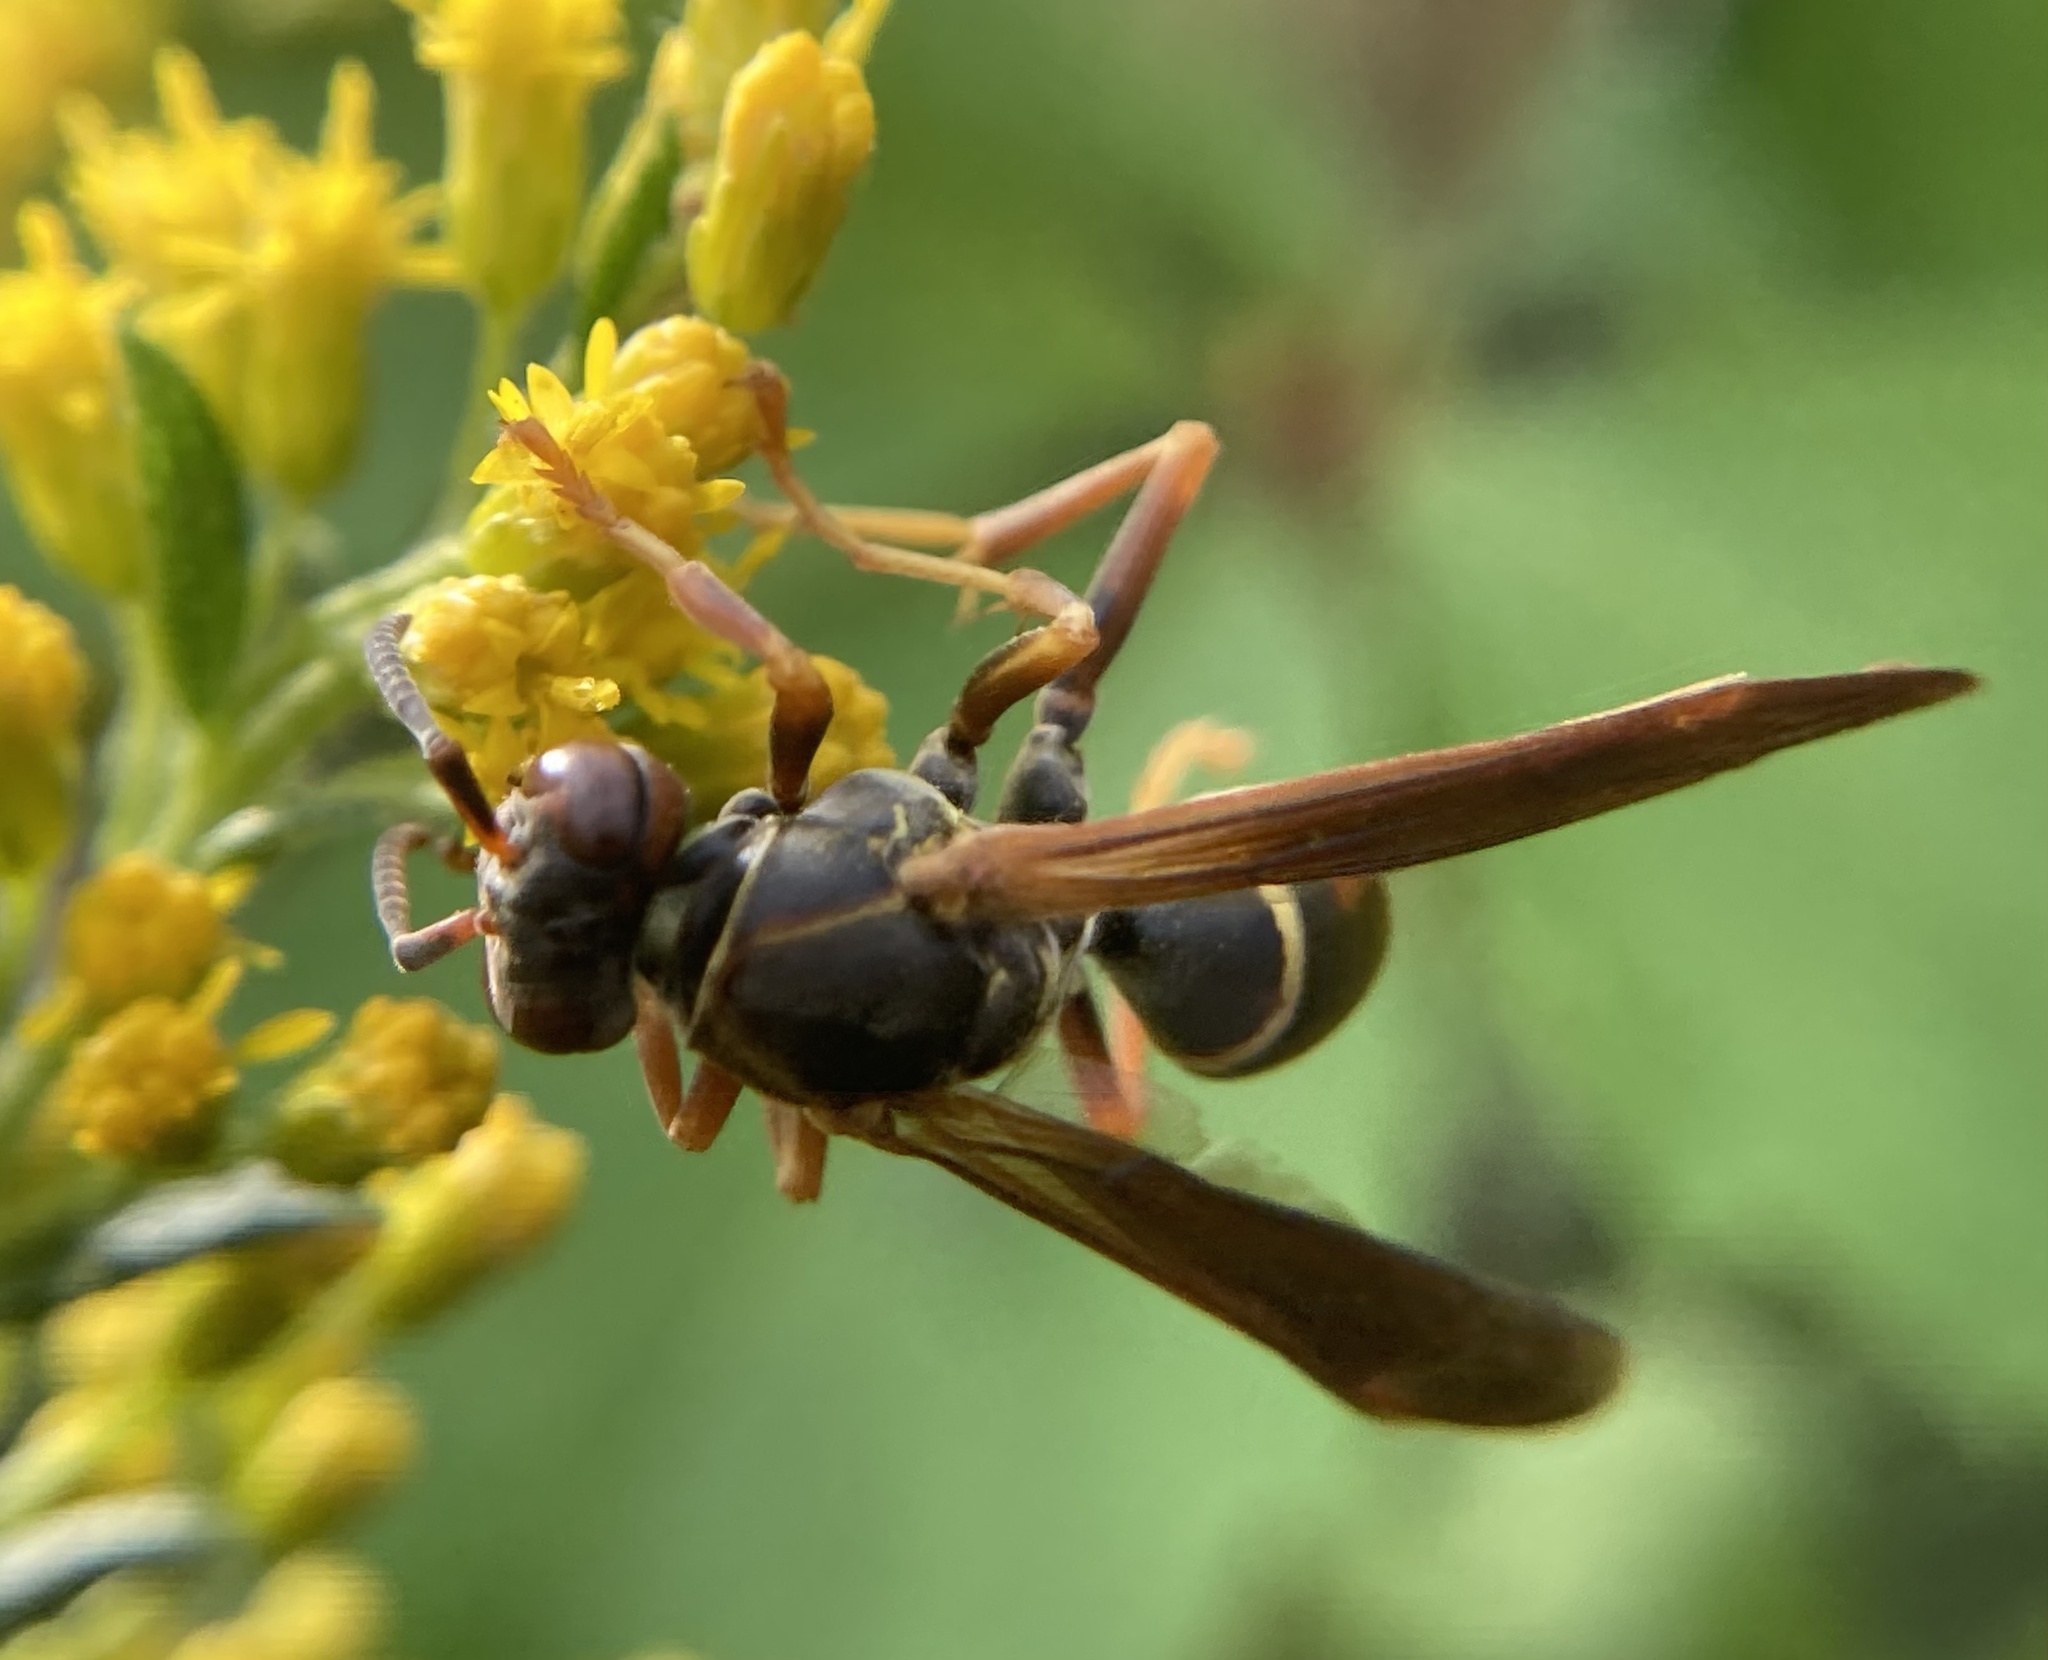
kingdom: Animalia
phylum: Arthropoda
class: Insecta
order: Hymenoptera
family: Eumenidae
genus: Polistes
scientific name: Polistes fuscatus
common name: Dark paper wasp
